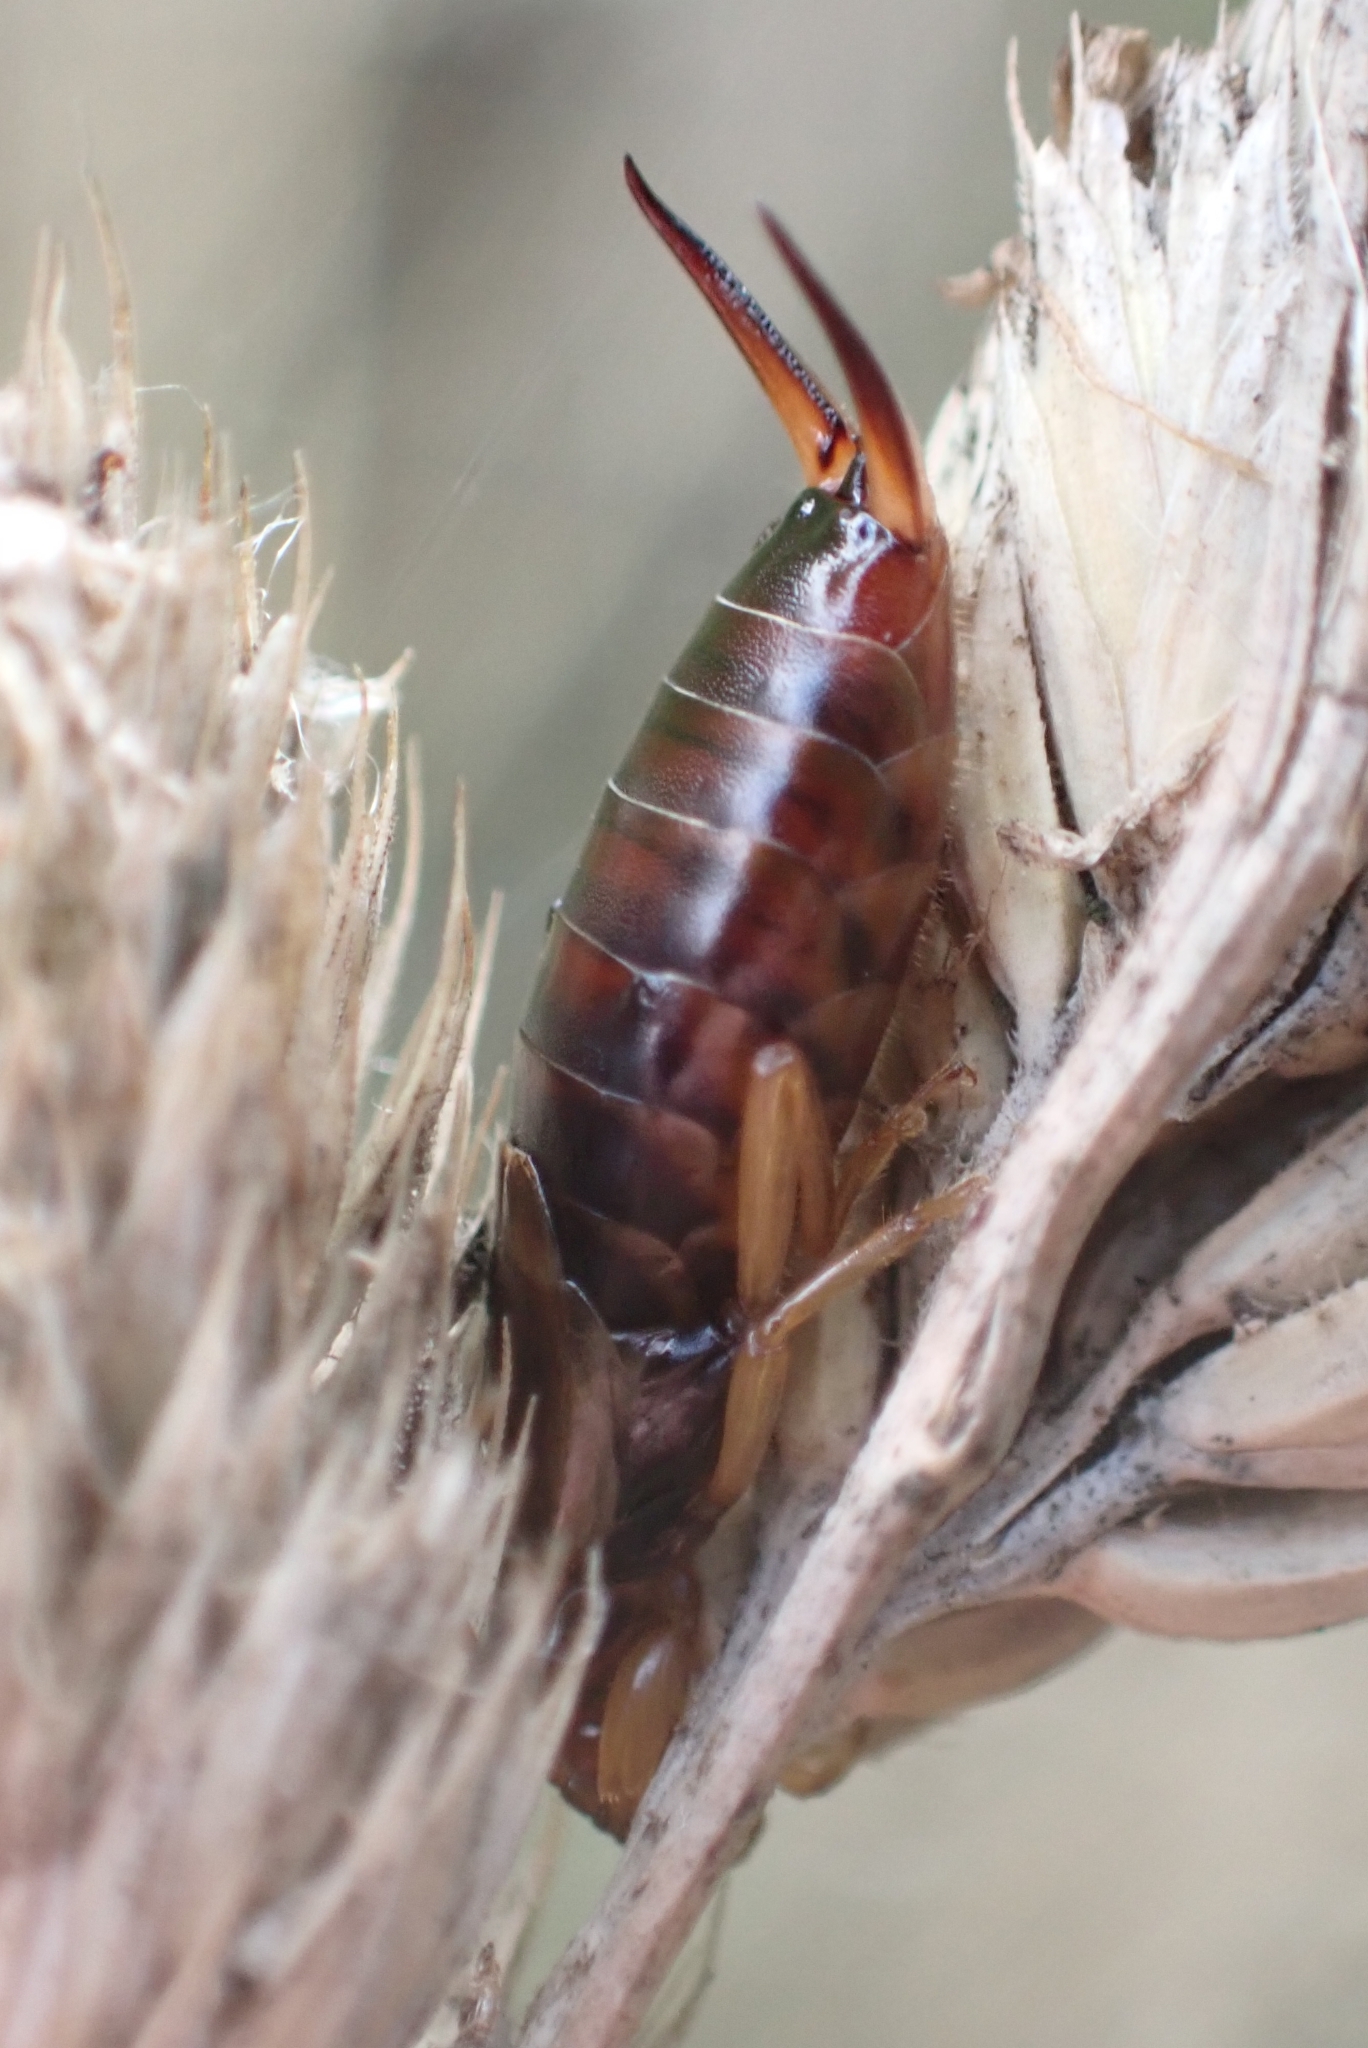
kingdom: Animalia
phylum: Arthropoda
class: Insecta
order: Dermaptera
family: Forficulidae
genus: Forficula
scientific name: Forficula
